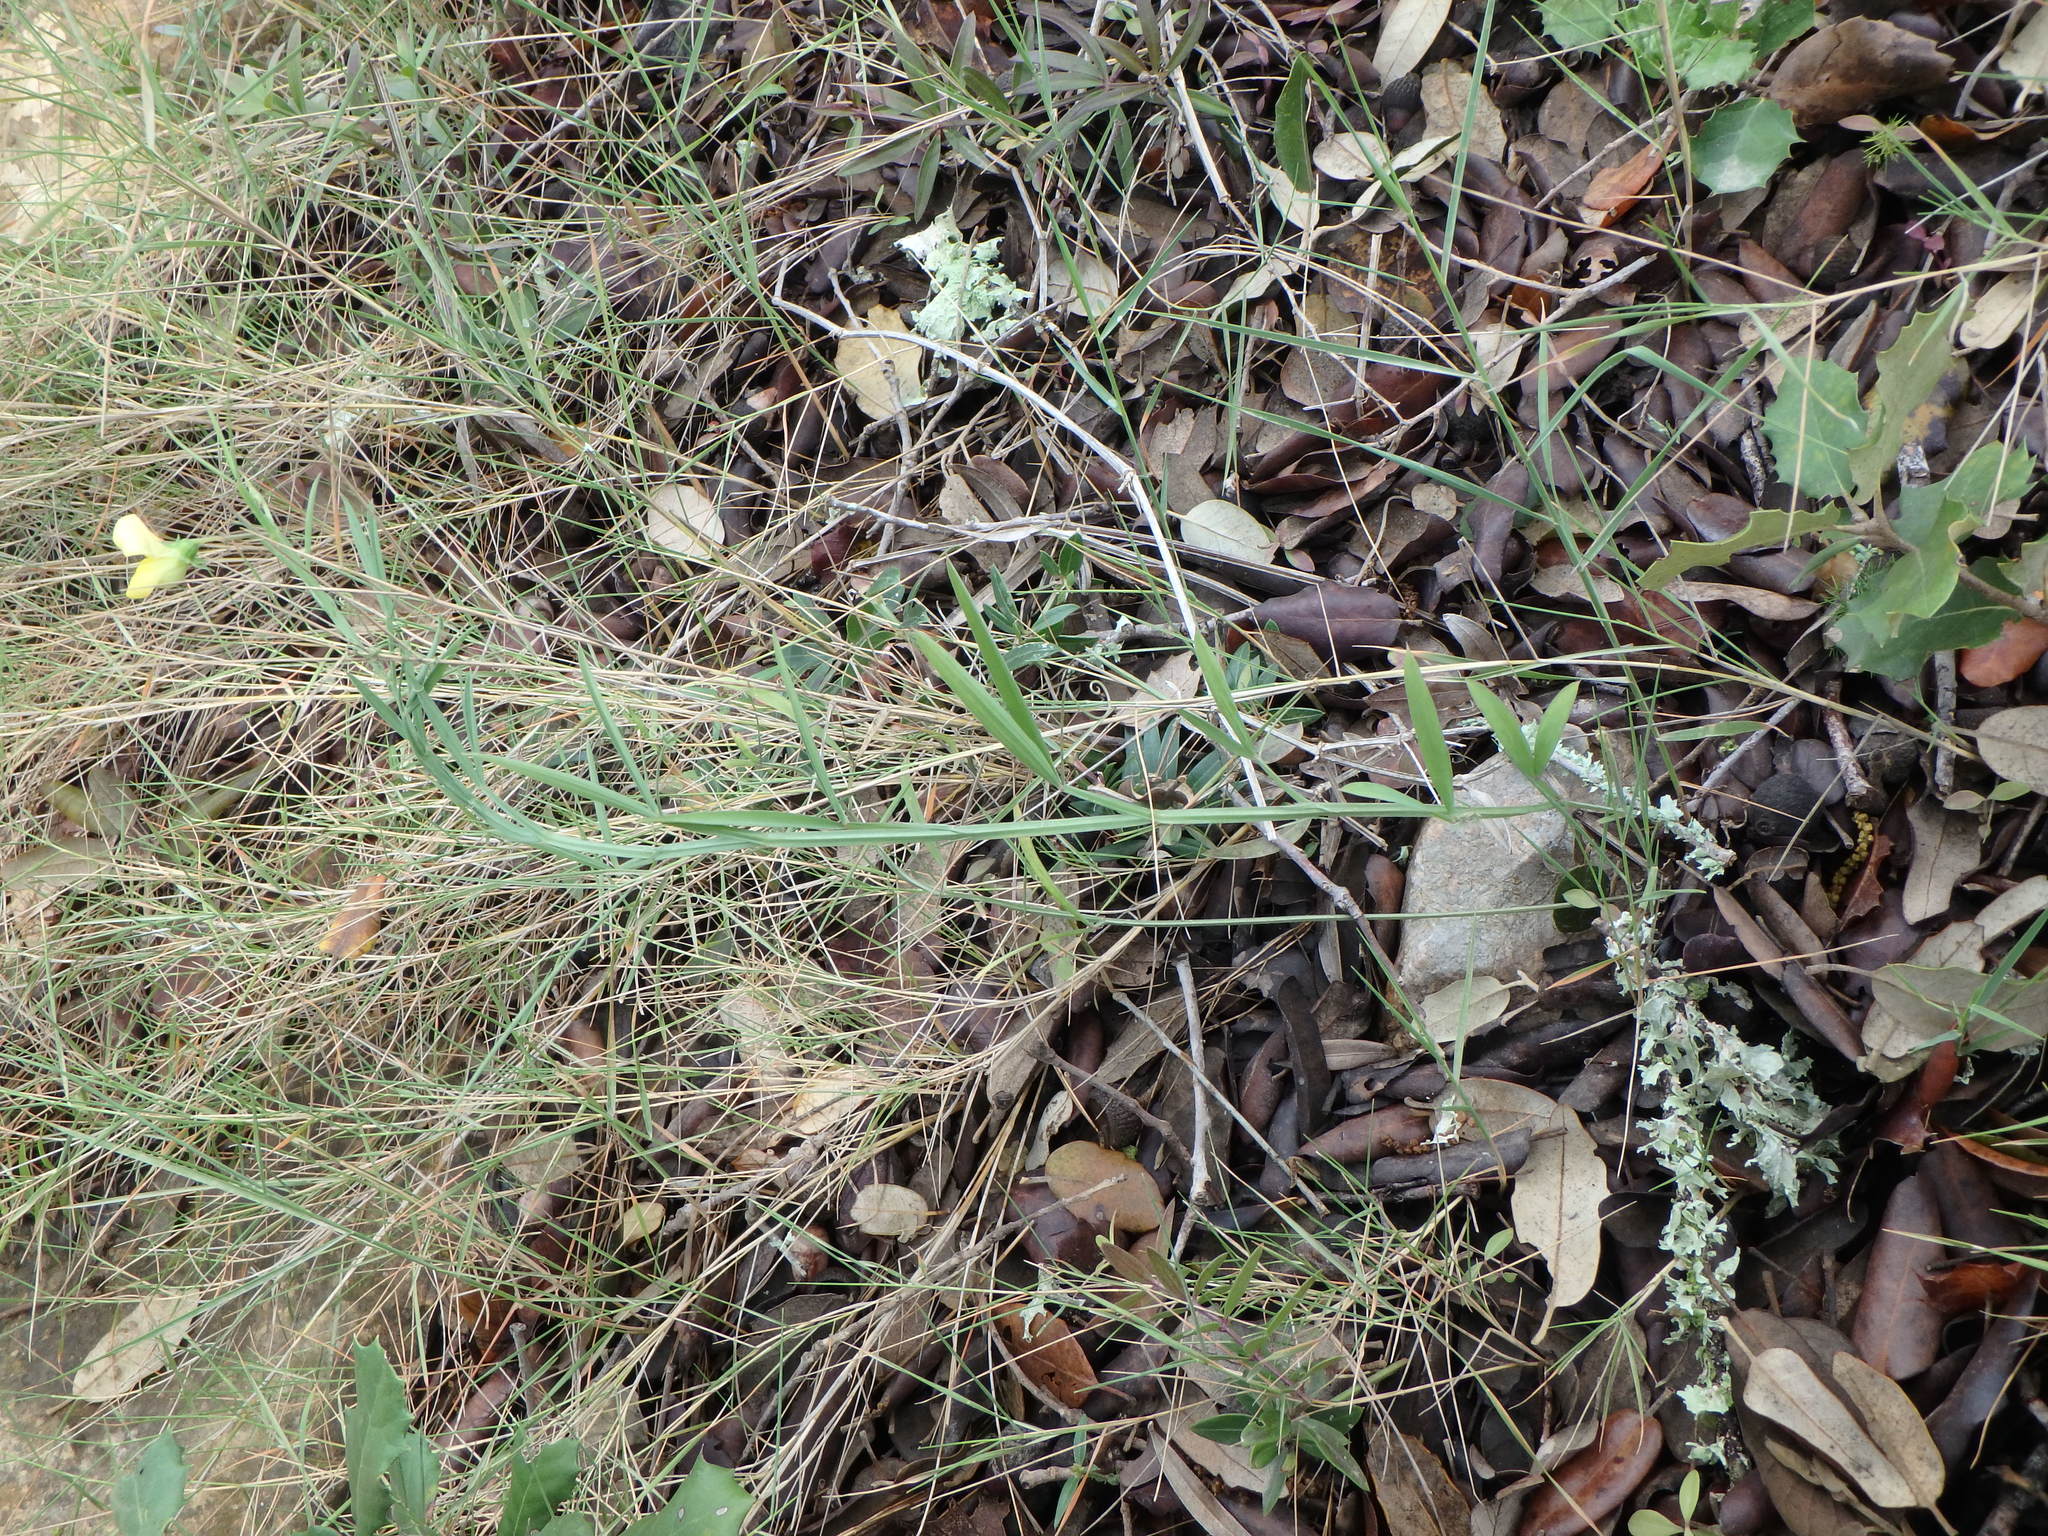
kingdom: Plantae
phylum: Tracheophyta
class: Magnoliopsida
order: Fabales
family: Fabaceae
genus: Lathyrus
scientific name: Lathyrus annuus
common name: Fodder pea
